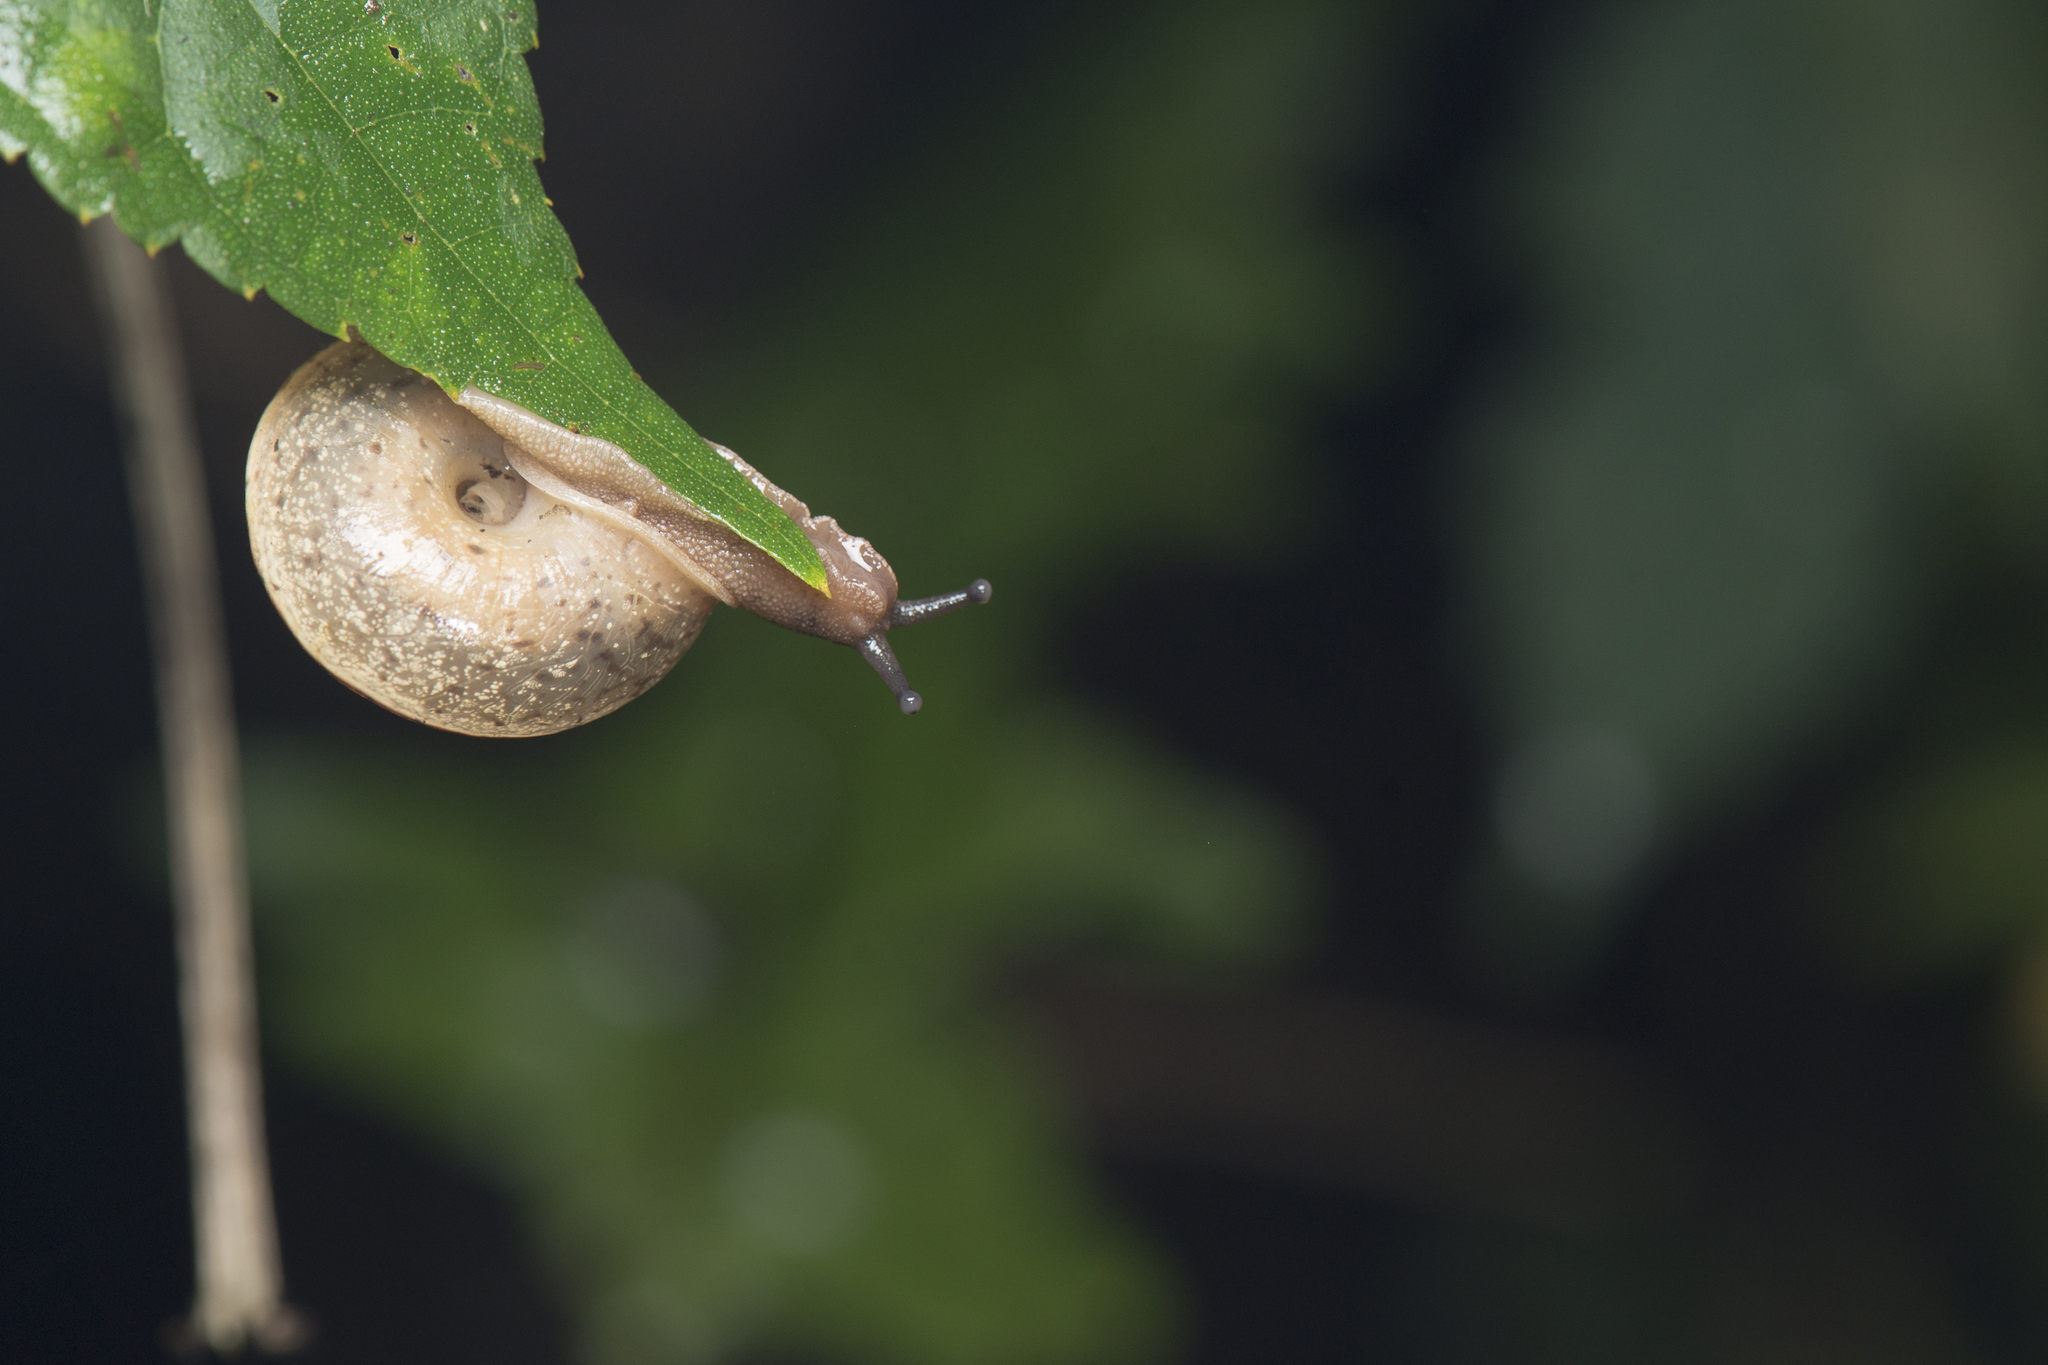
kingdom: Animalia
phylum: Mollusca
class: Gastropoda
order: Stylommatophora
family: Camaenidae
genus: Satsuma
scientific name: Satsuma mellea
